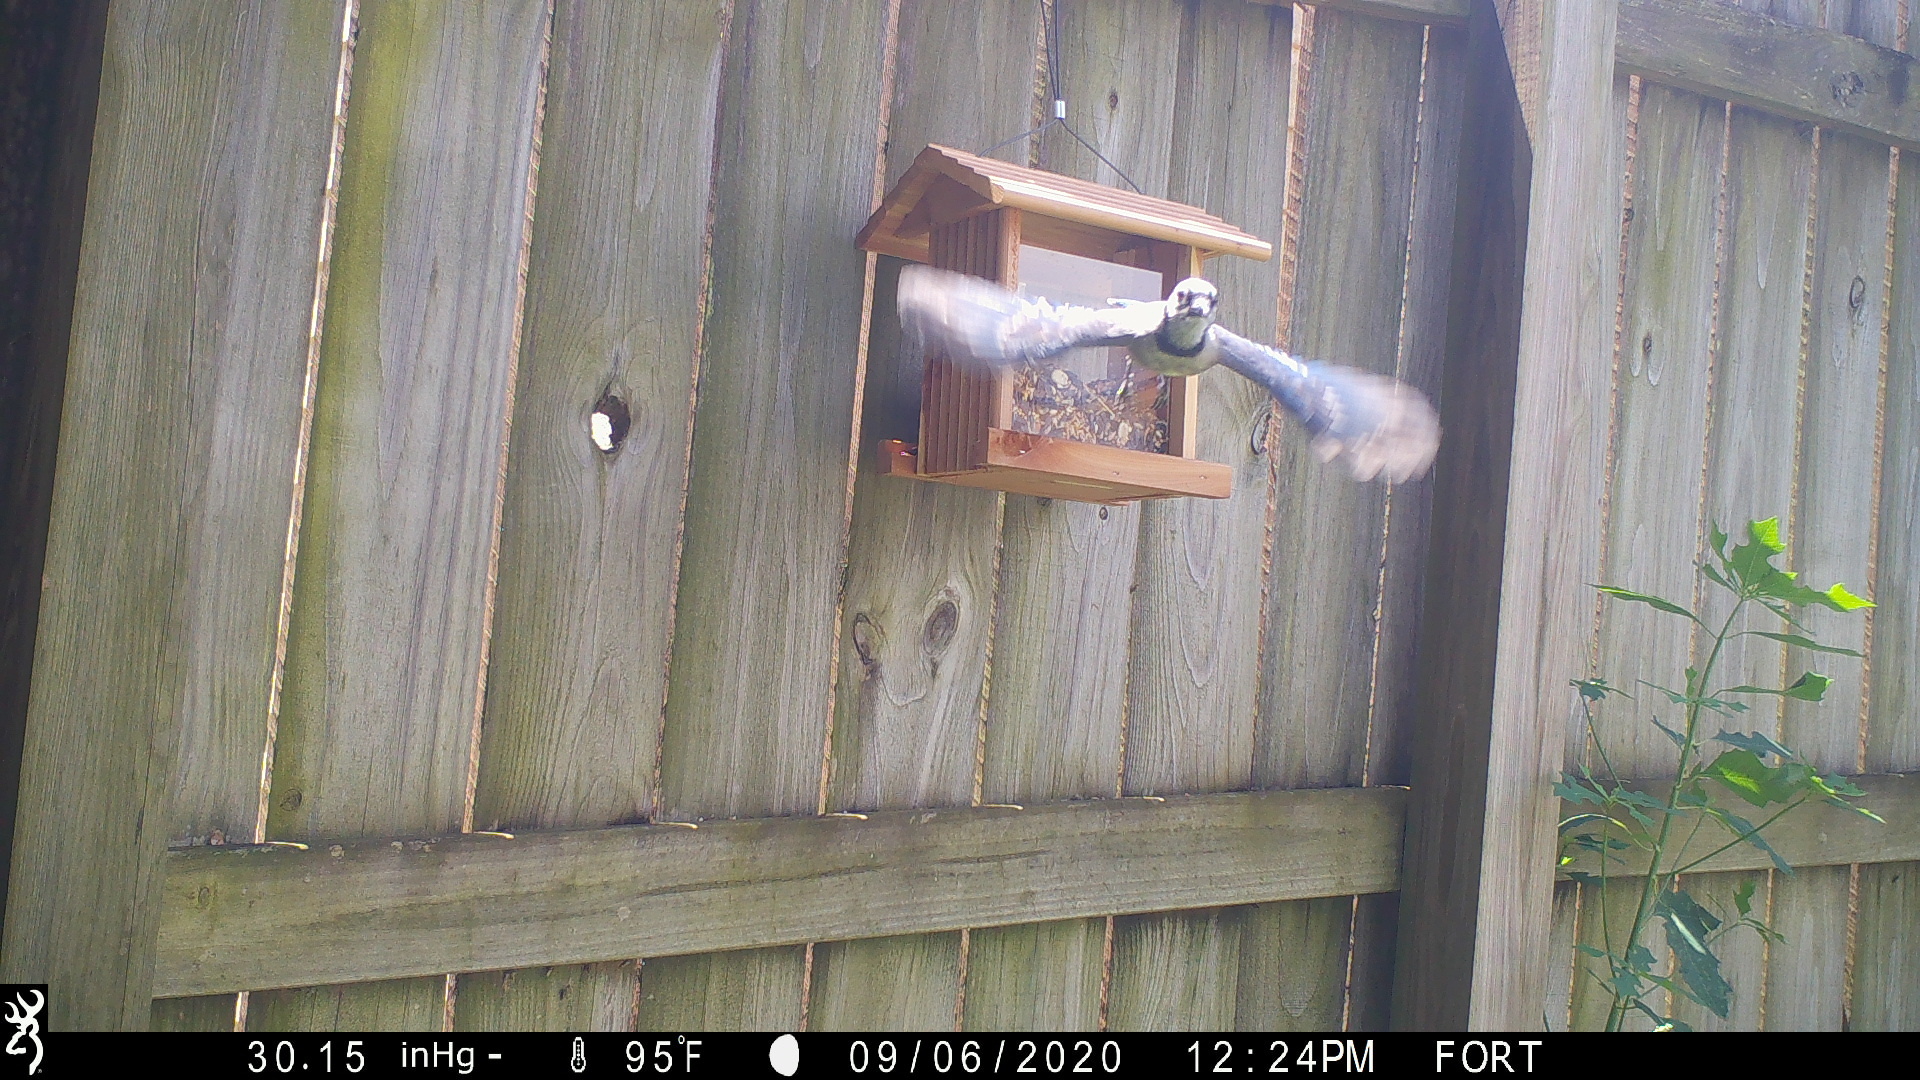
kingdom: Animalia
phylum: Chordata
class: Aves
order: Passeriformes
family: Corvidae
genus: Cyanocitta
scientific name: Cyanocitta cristata
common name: Blue jay
